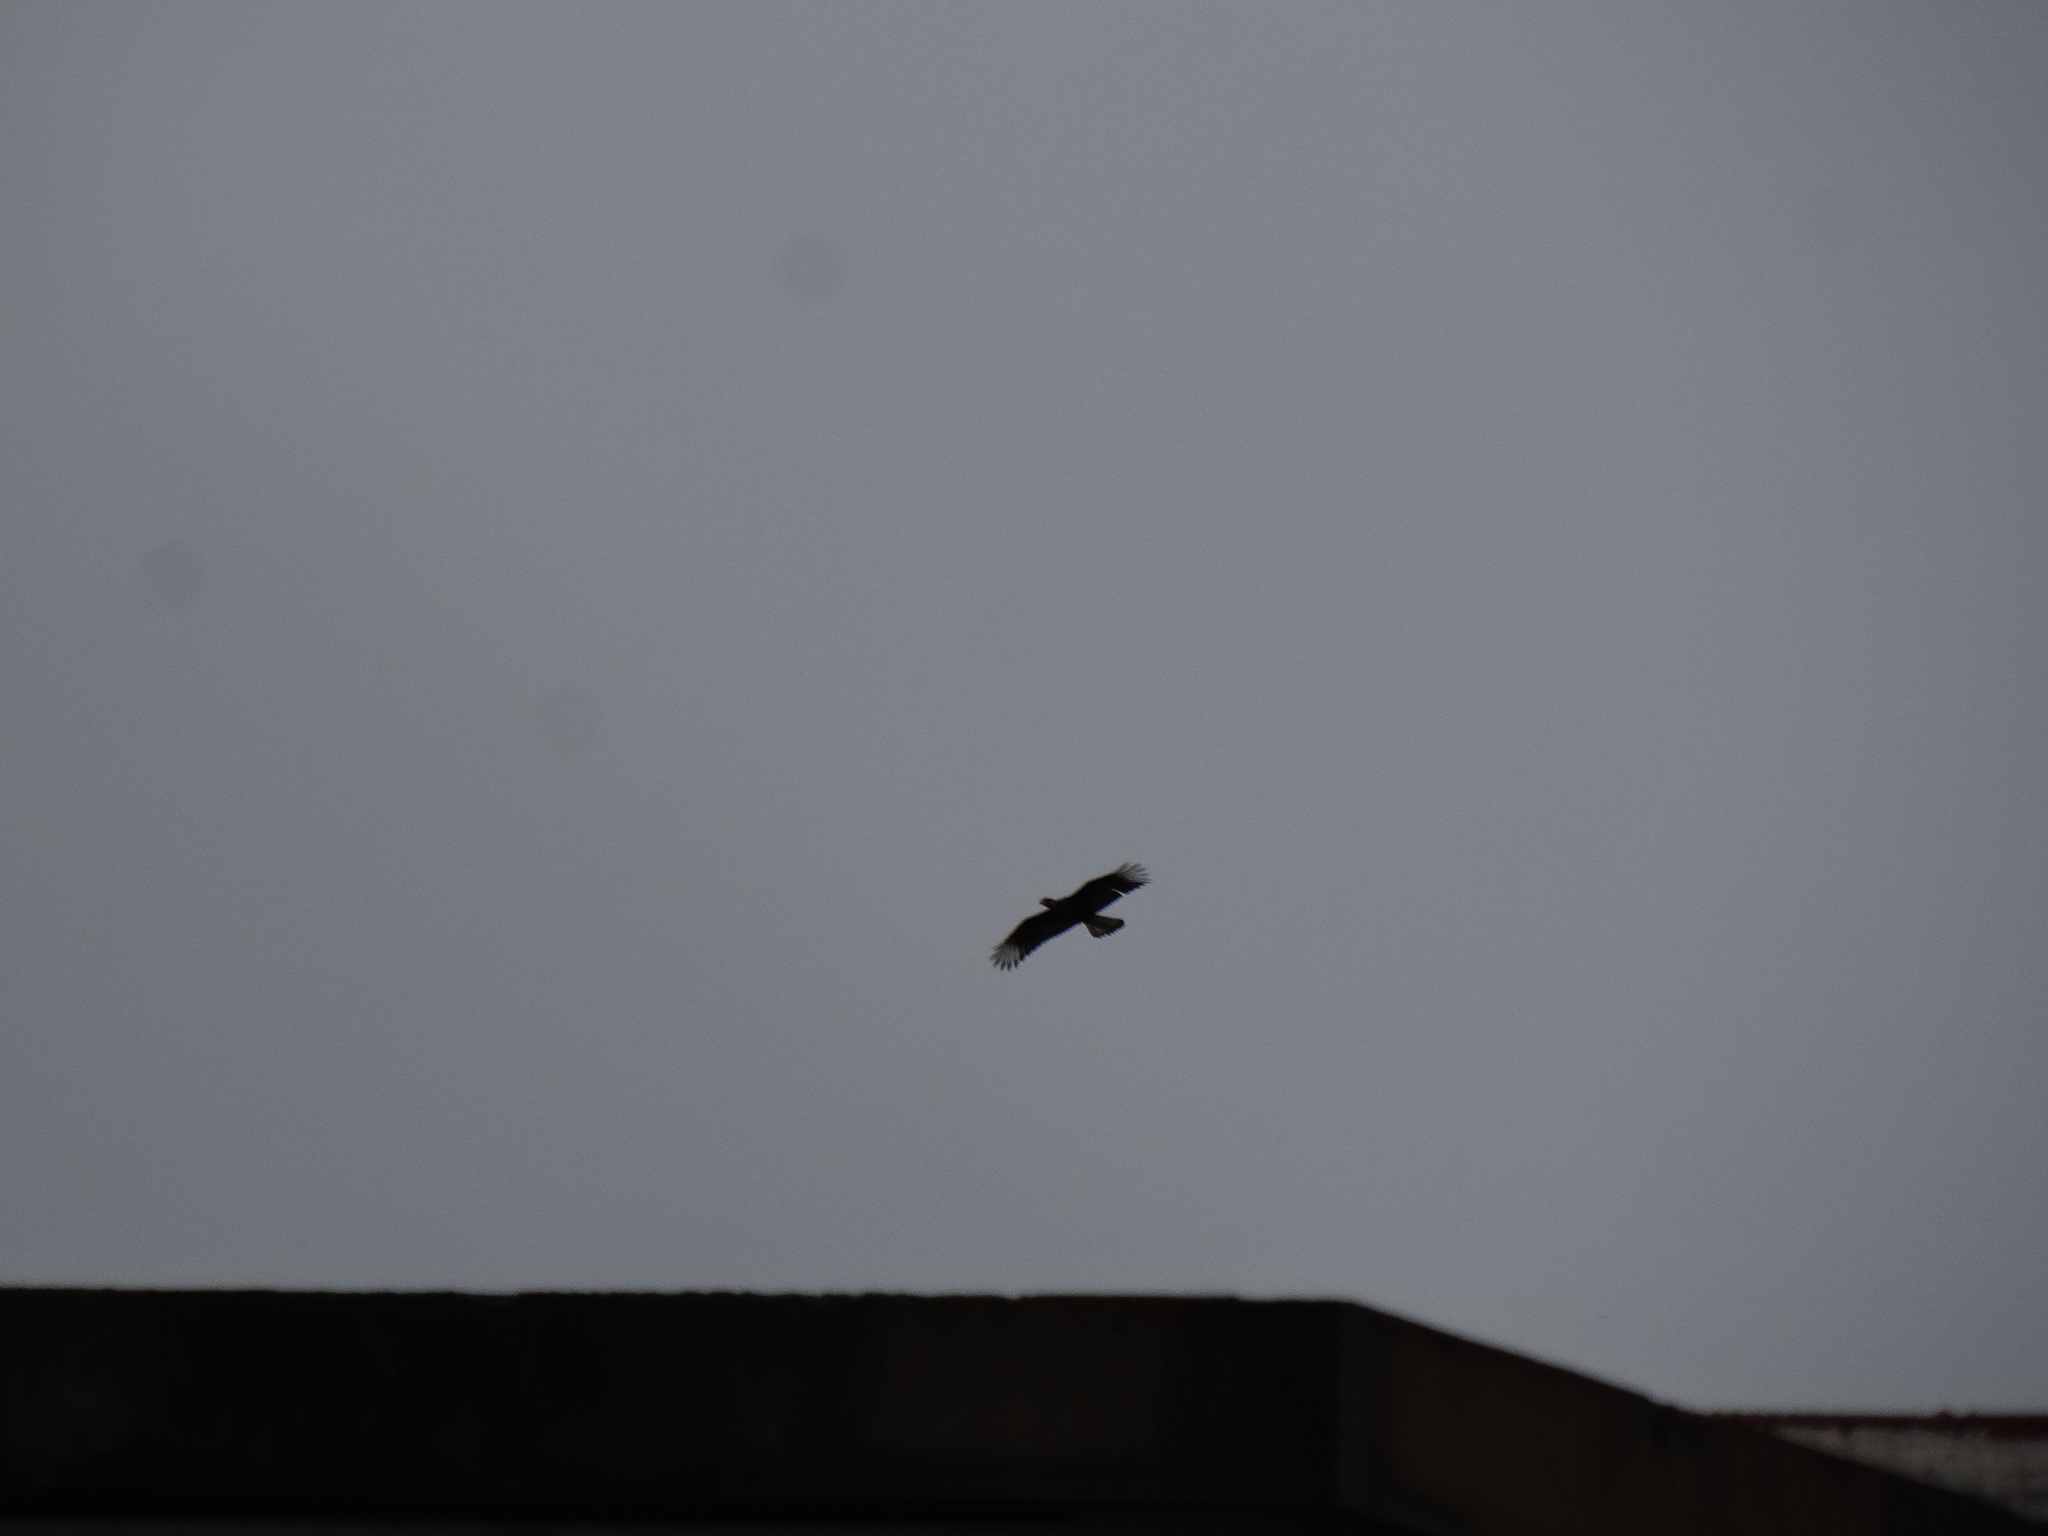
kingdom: Animalia
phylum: Chordata
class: Aves
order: Falconiformes
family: Falconidae
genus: Caracara
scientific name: Caracara plancus
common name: Southern caracara
